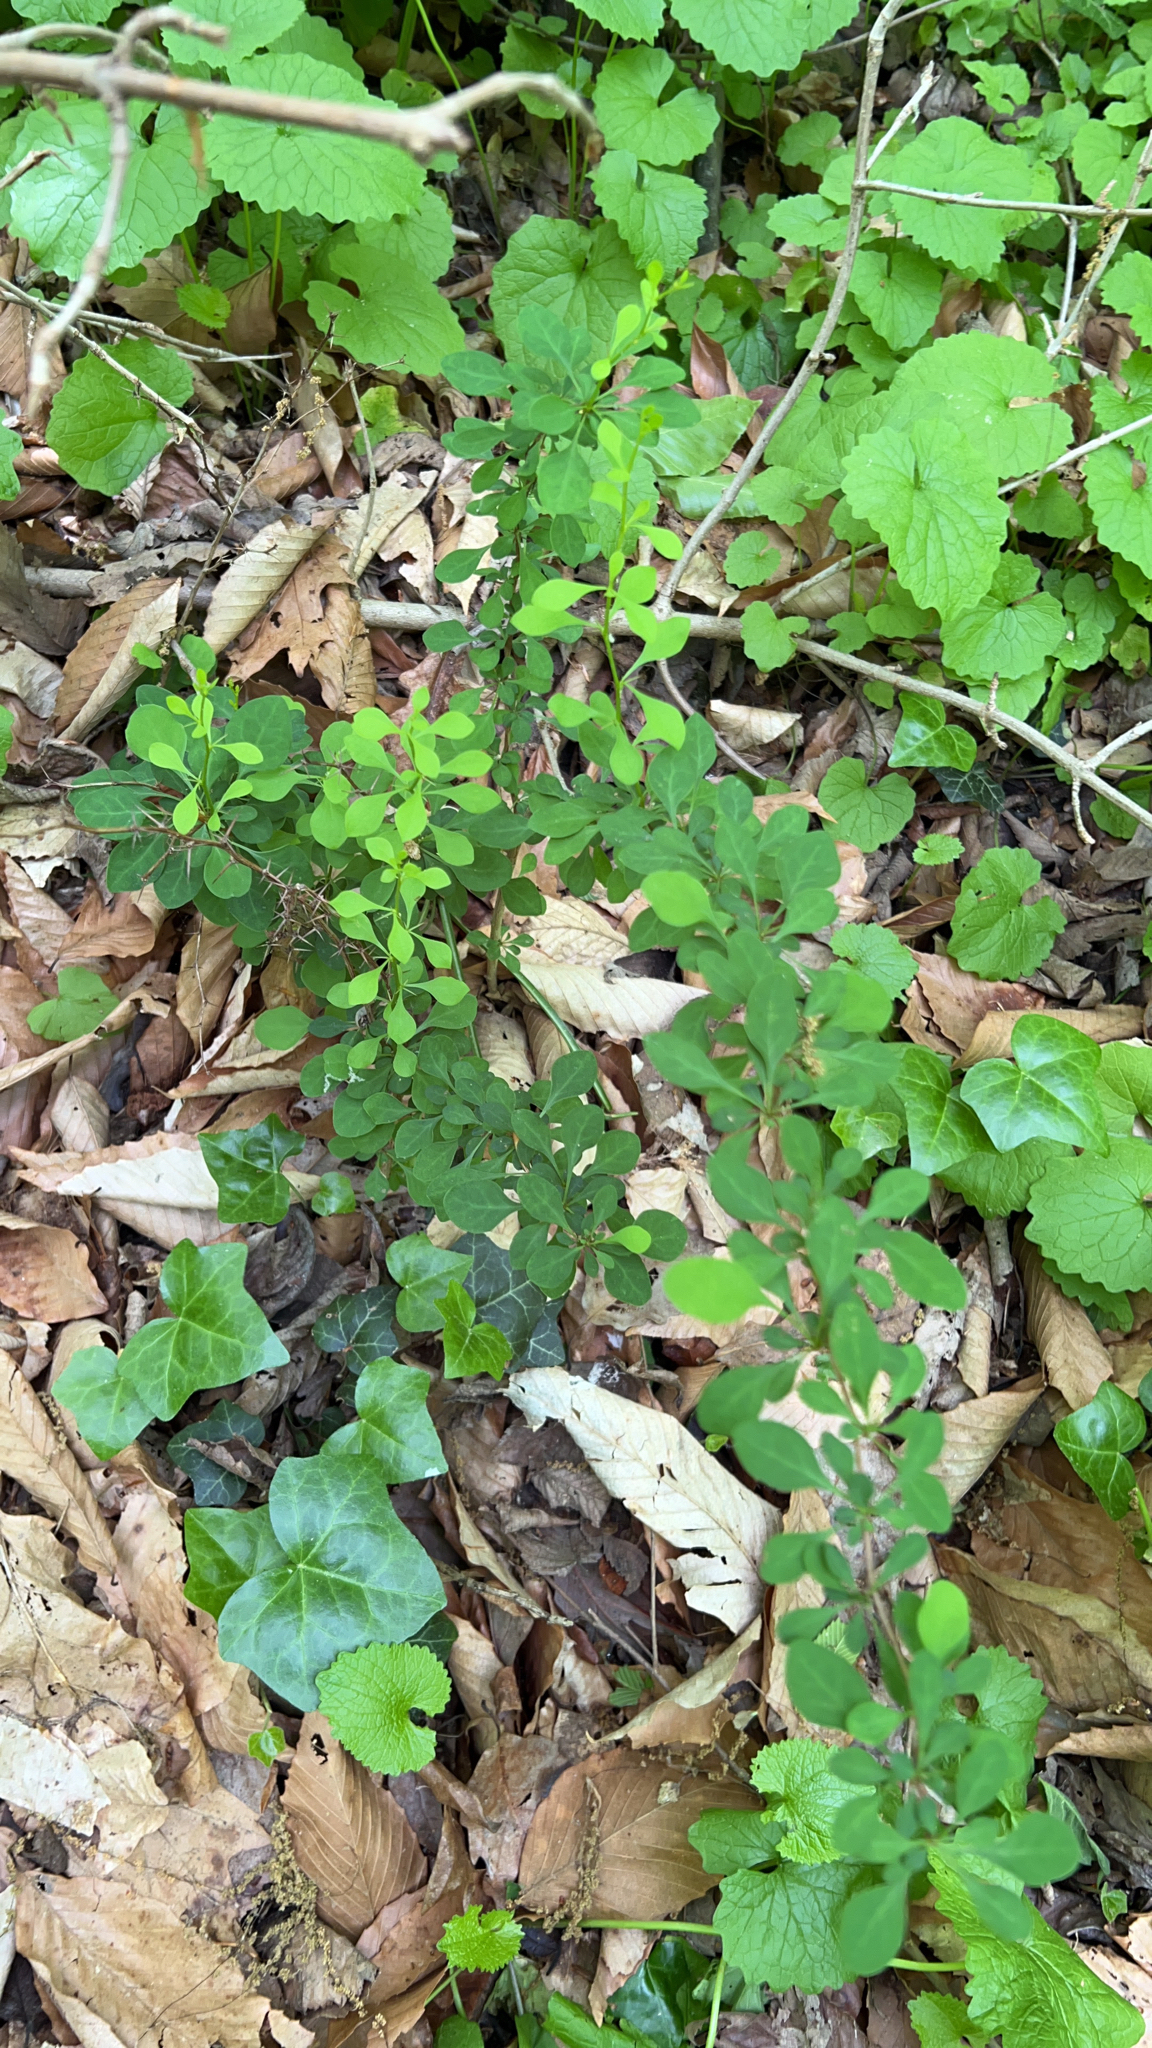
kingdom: Plantae
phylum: Tracheophyta
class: Magnoliopsida
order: Ranunculales
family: Berberidaceae
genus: Berberis
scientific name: Berberis thunbergii
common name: Japanese barberry
